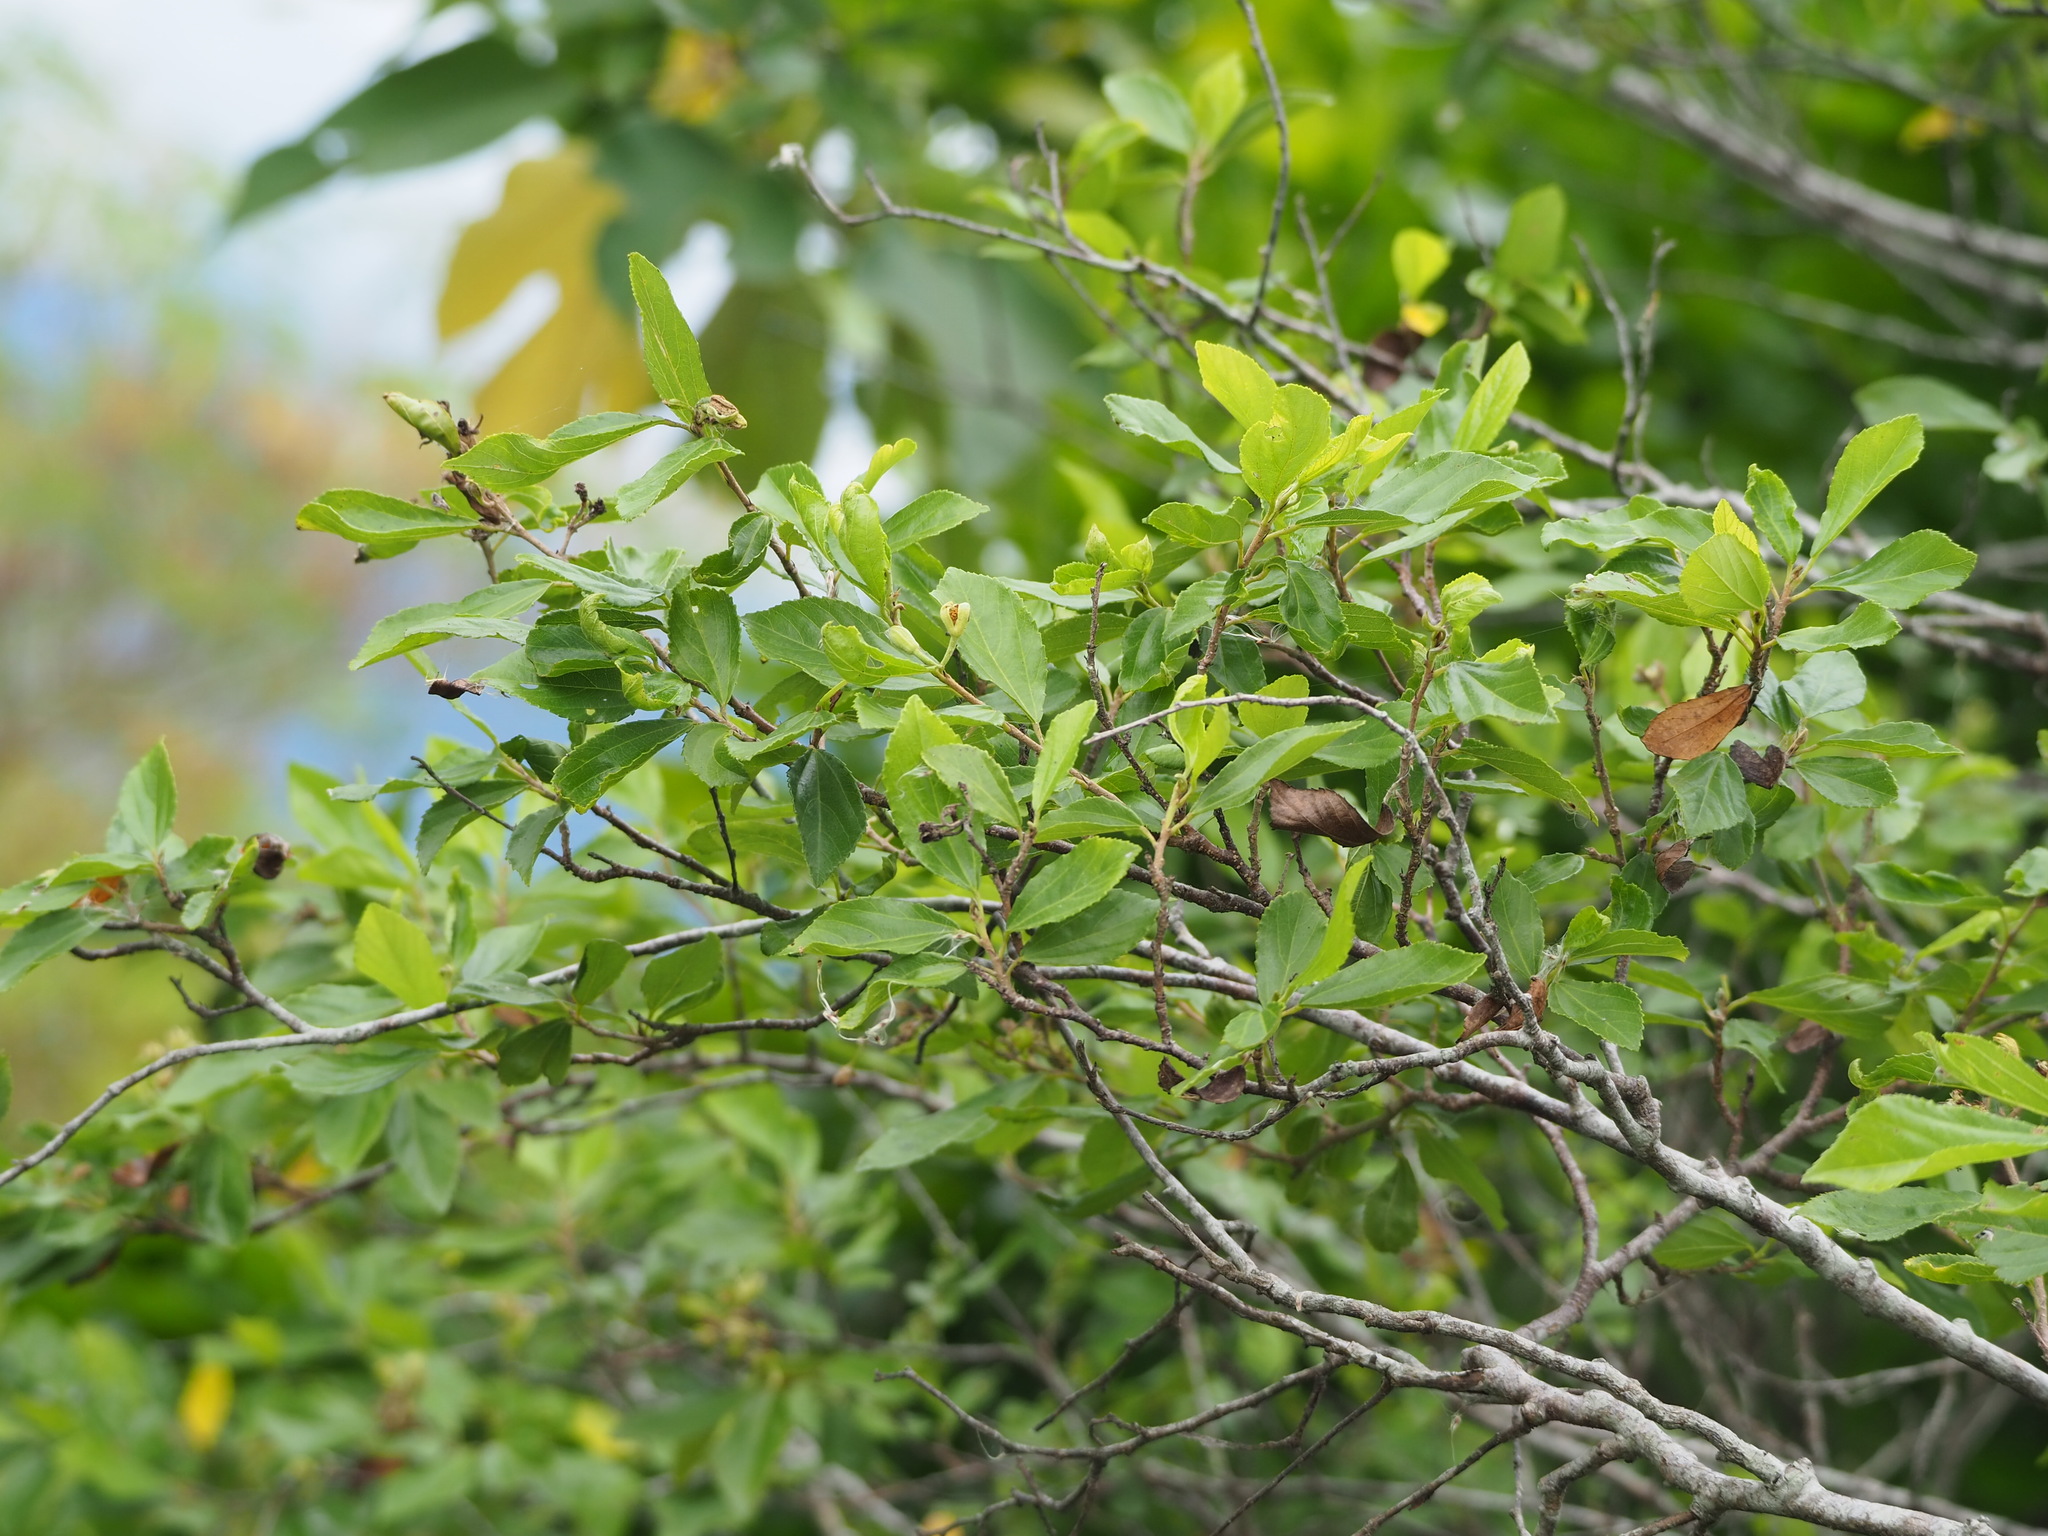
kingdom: Plantae
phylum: Tracheophyta
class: Magnoliopsida
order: Malvales
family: Malvaceae
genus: Grewia
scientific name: Grewia rhombifolia
